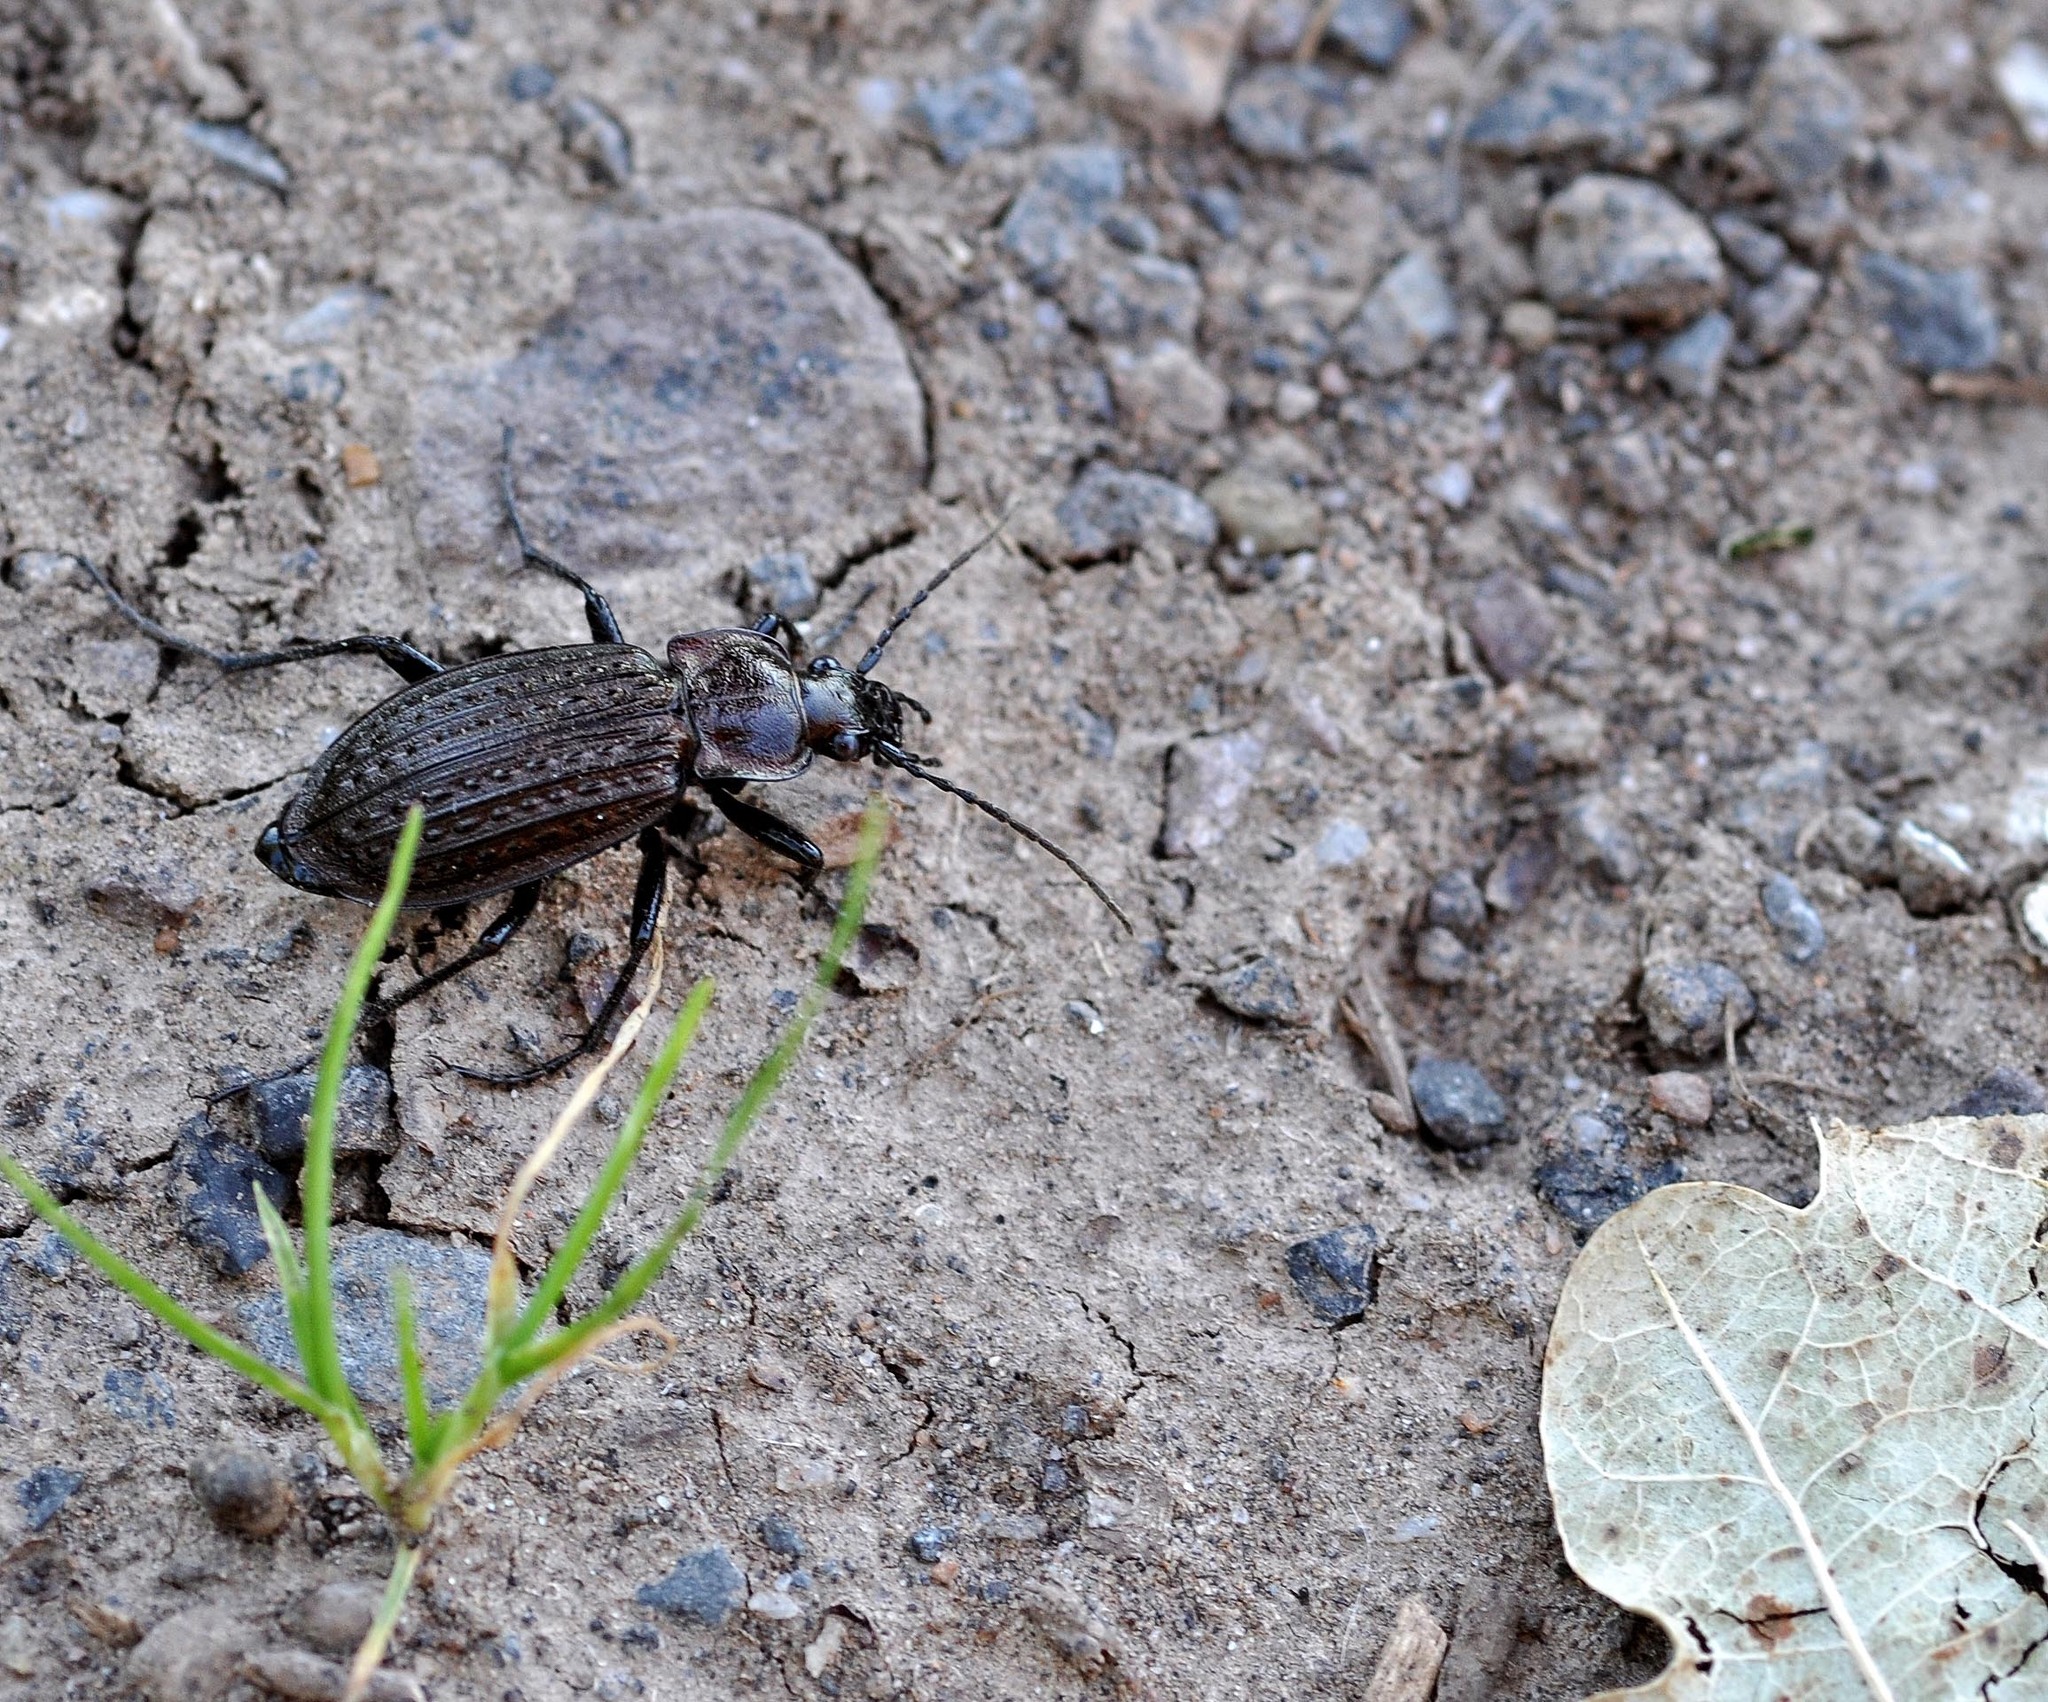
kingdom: Animalia
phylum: Arthropoda
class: Insecta
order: Coleoptera
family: Carabidae
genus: Carabus
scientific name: Carabus granulatus
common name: Granulate ground beetle
